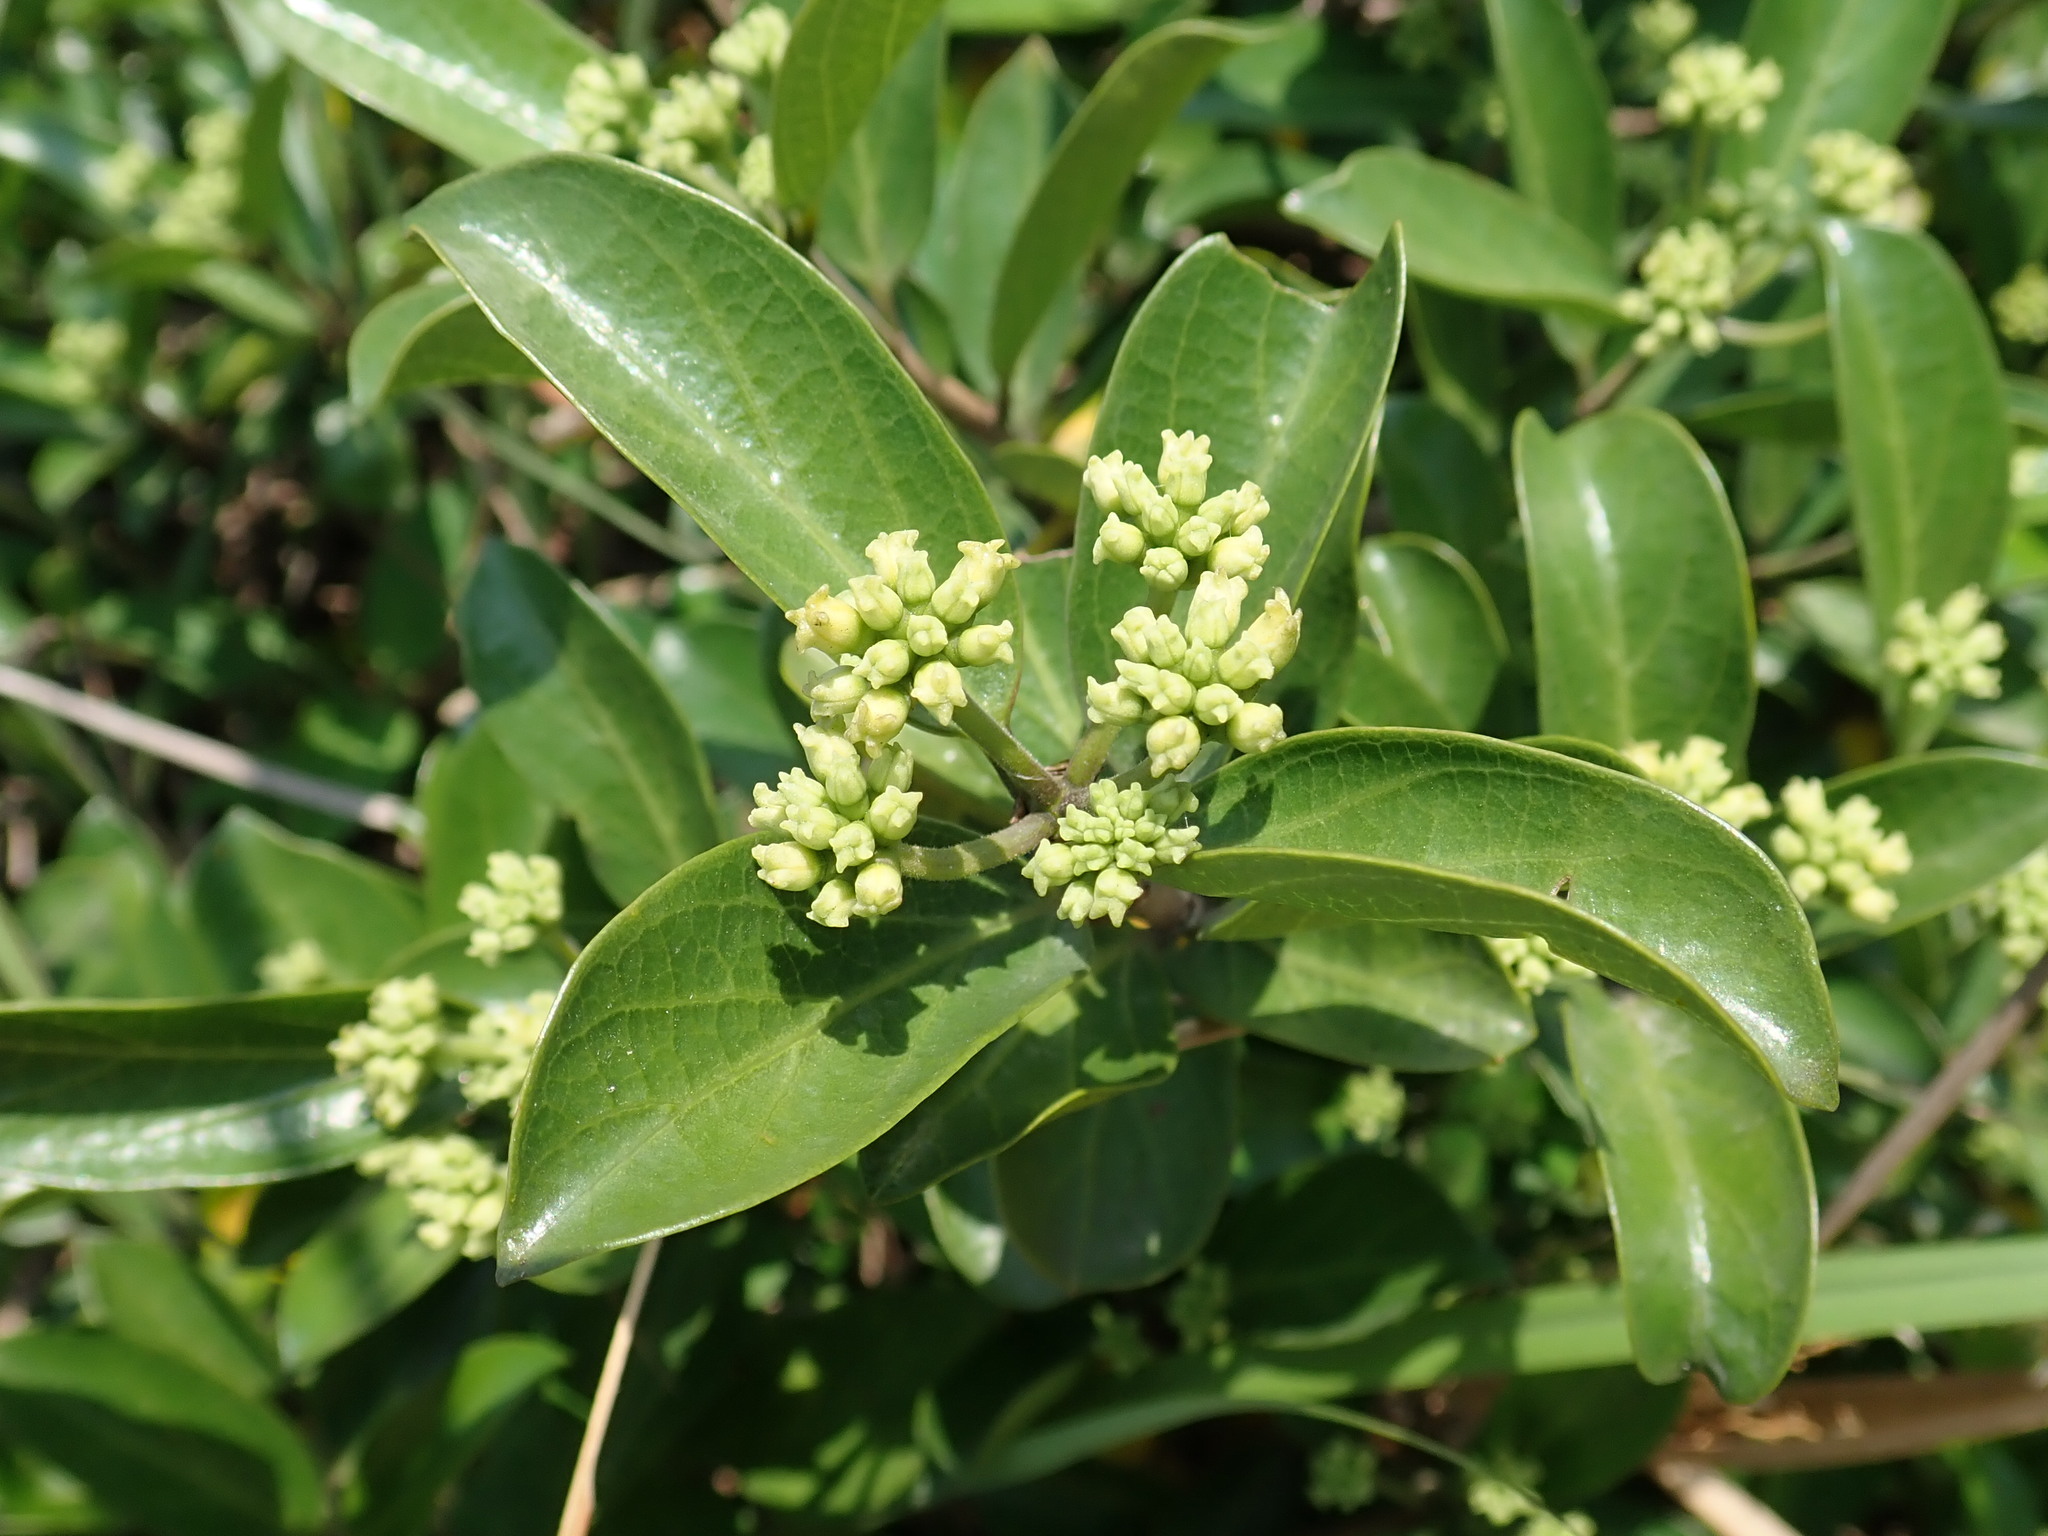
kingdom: Plantae
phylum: Tracheophyta
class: Magnoliopsida
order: Gentianales
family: Rubiaceae
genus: Gynochthodes
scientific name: Gynochthodes parvifolia
